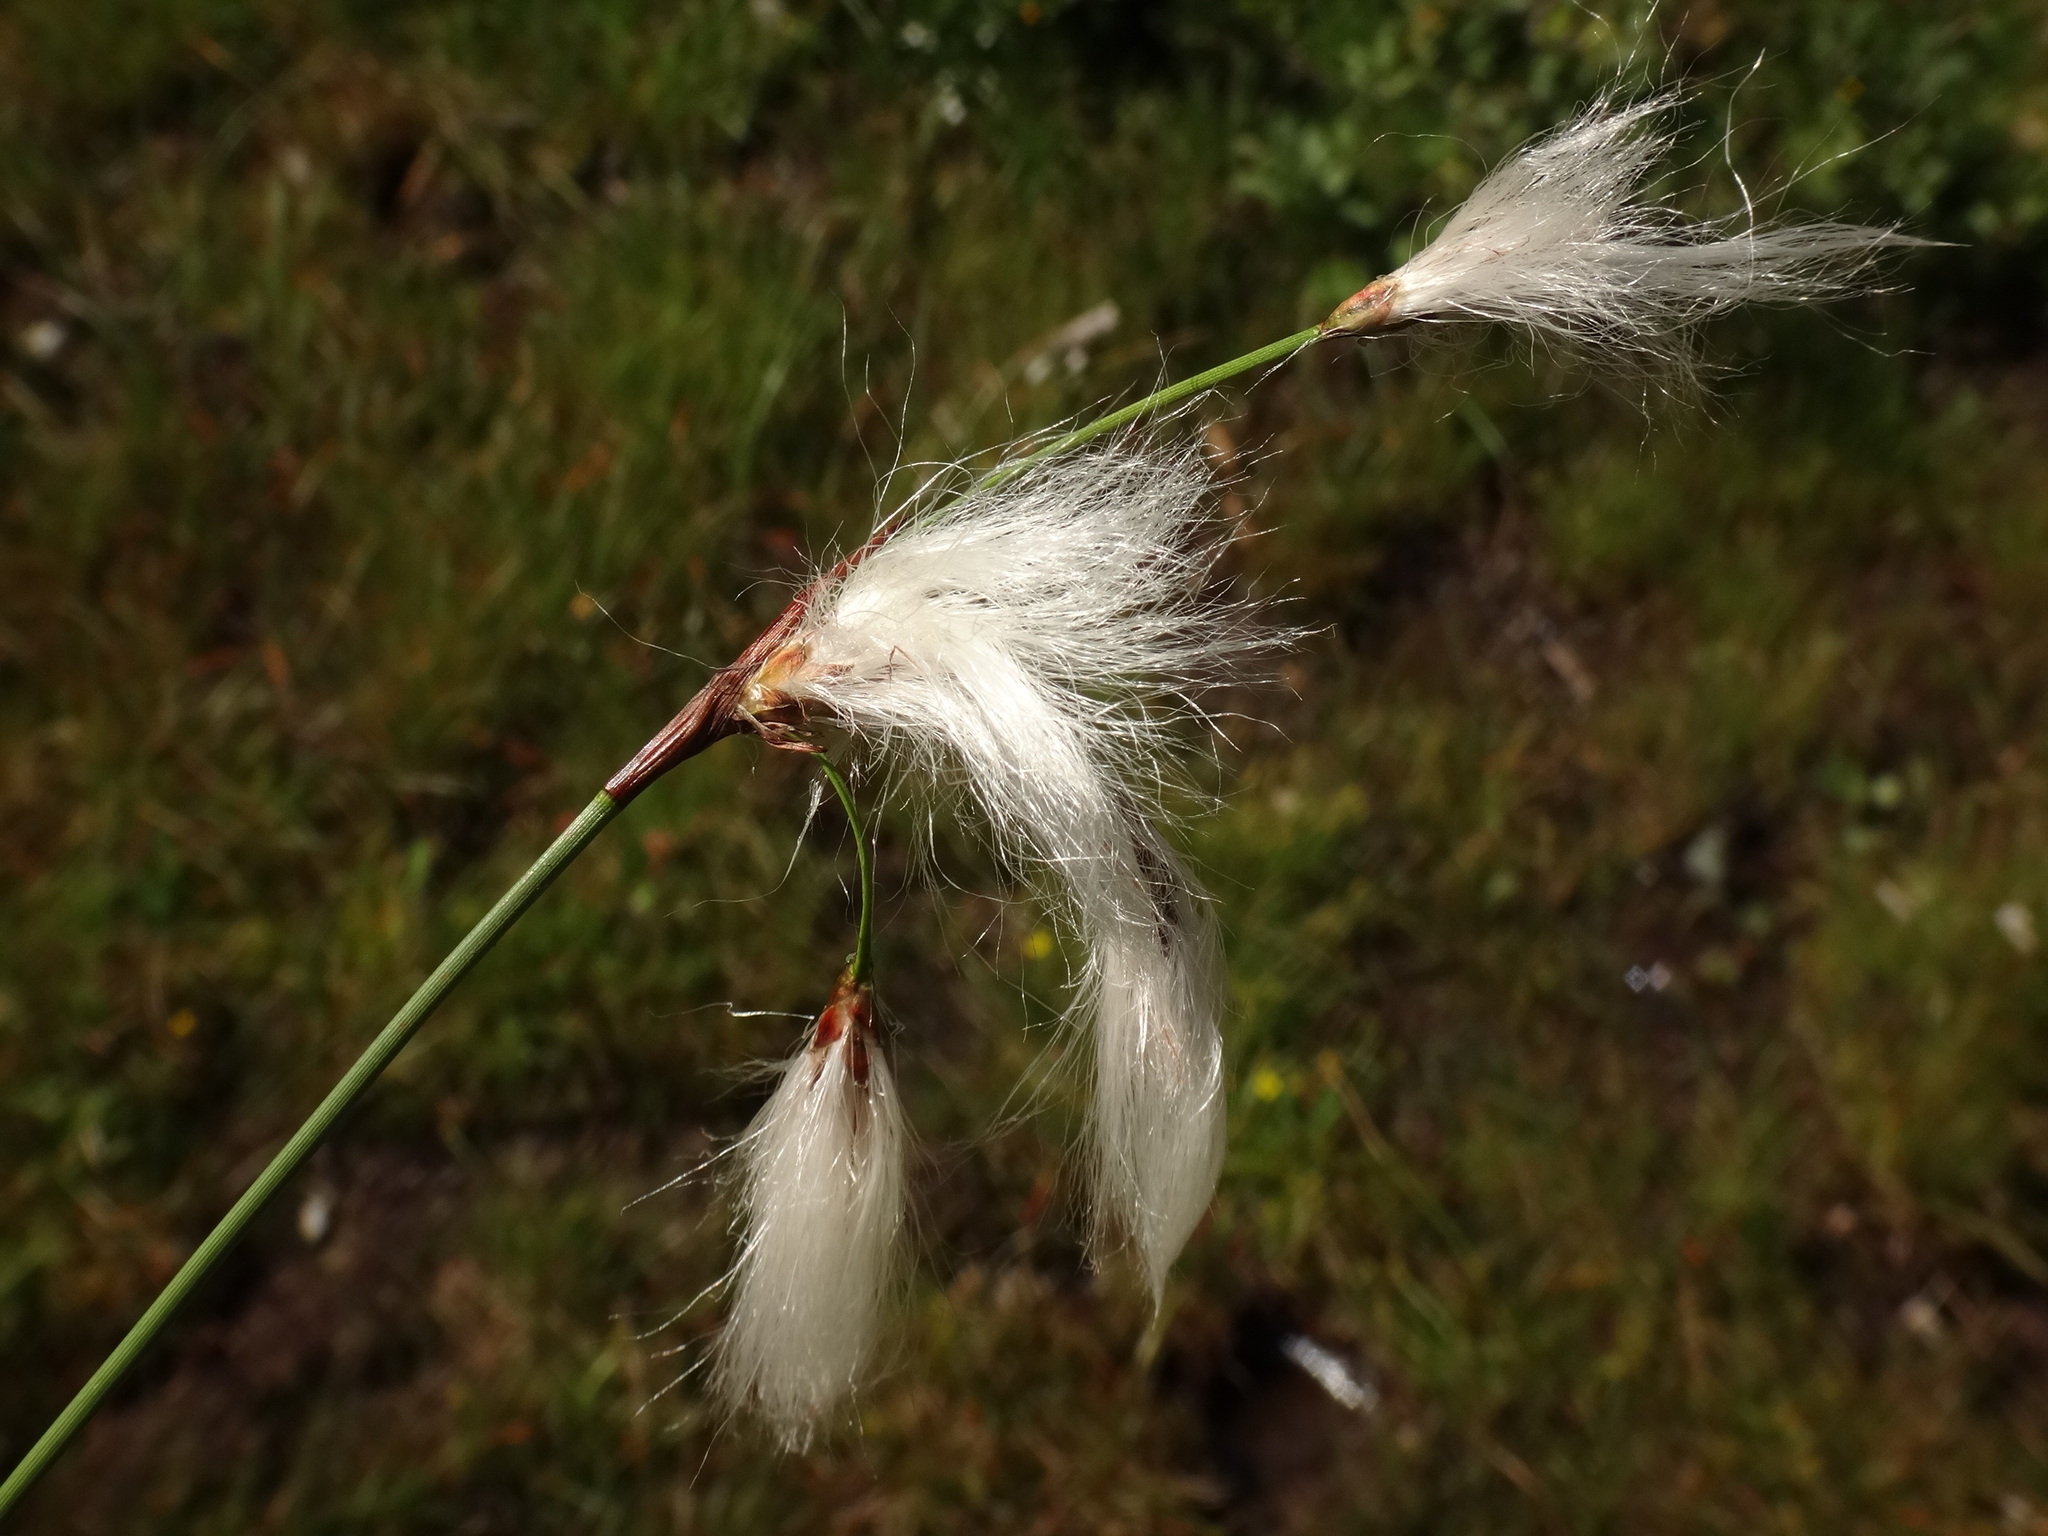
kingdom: Plantae
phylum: Tracheophyta
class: Liliopsida
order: Poales
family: Cyperaceae
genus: Eriophorum
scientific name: Eriophorum angustifolium
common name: Common cottongrass
